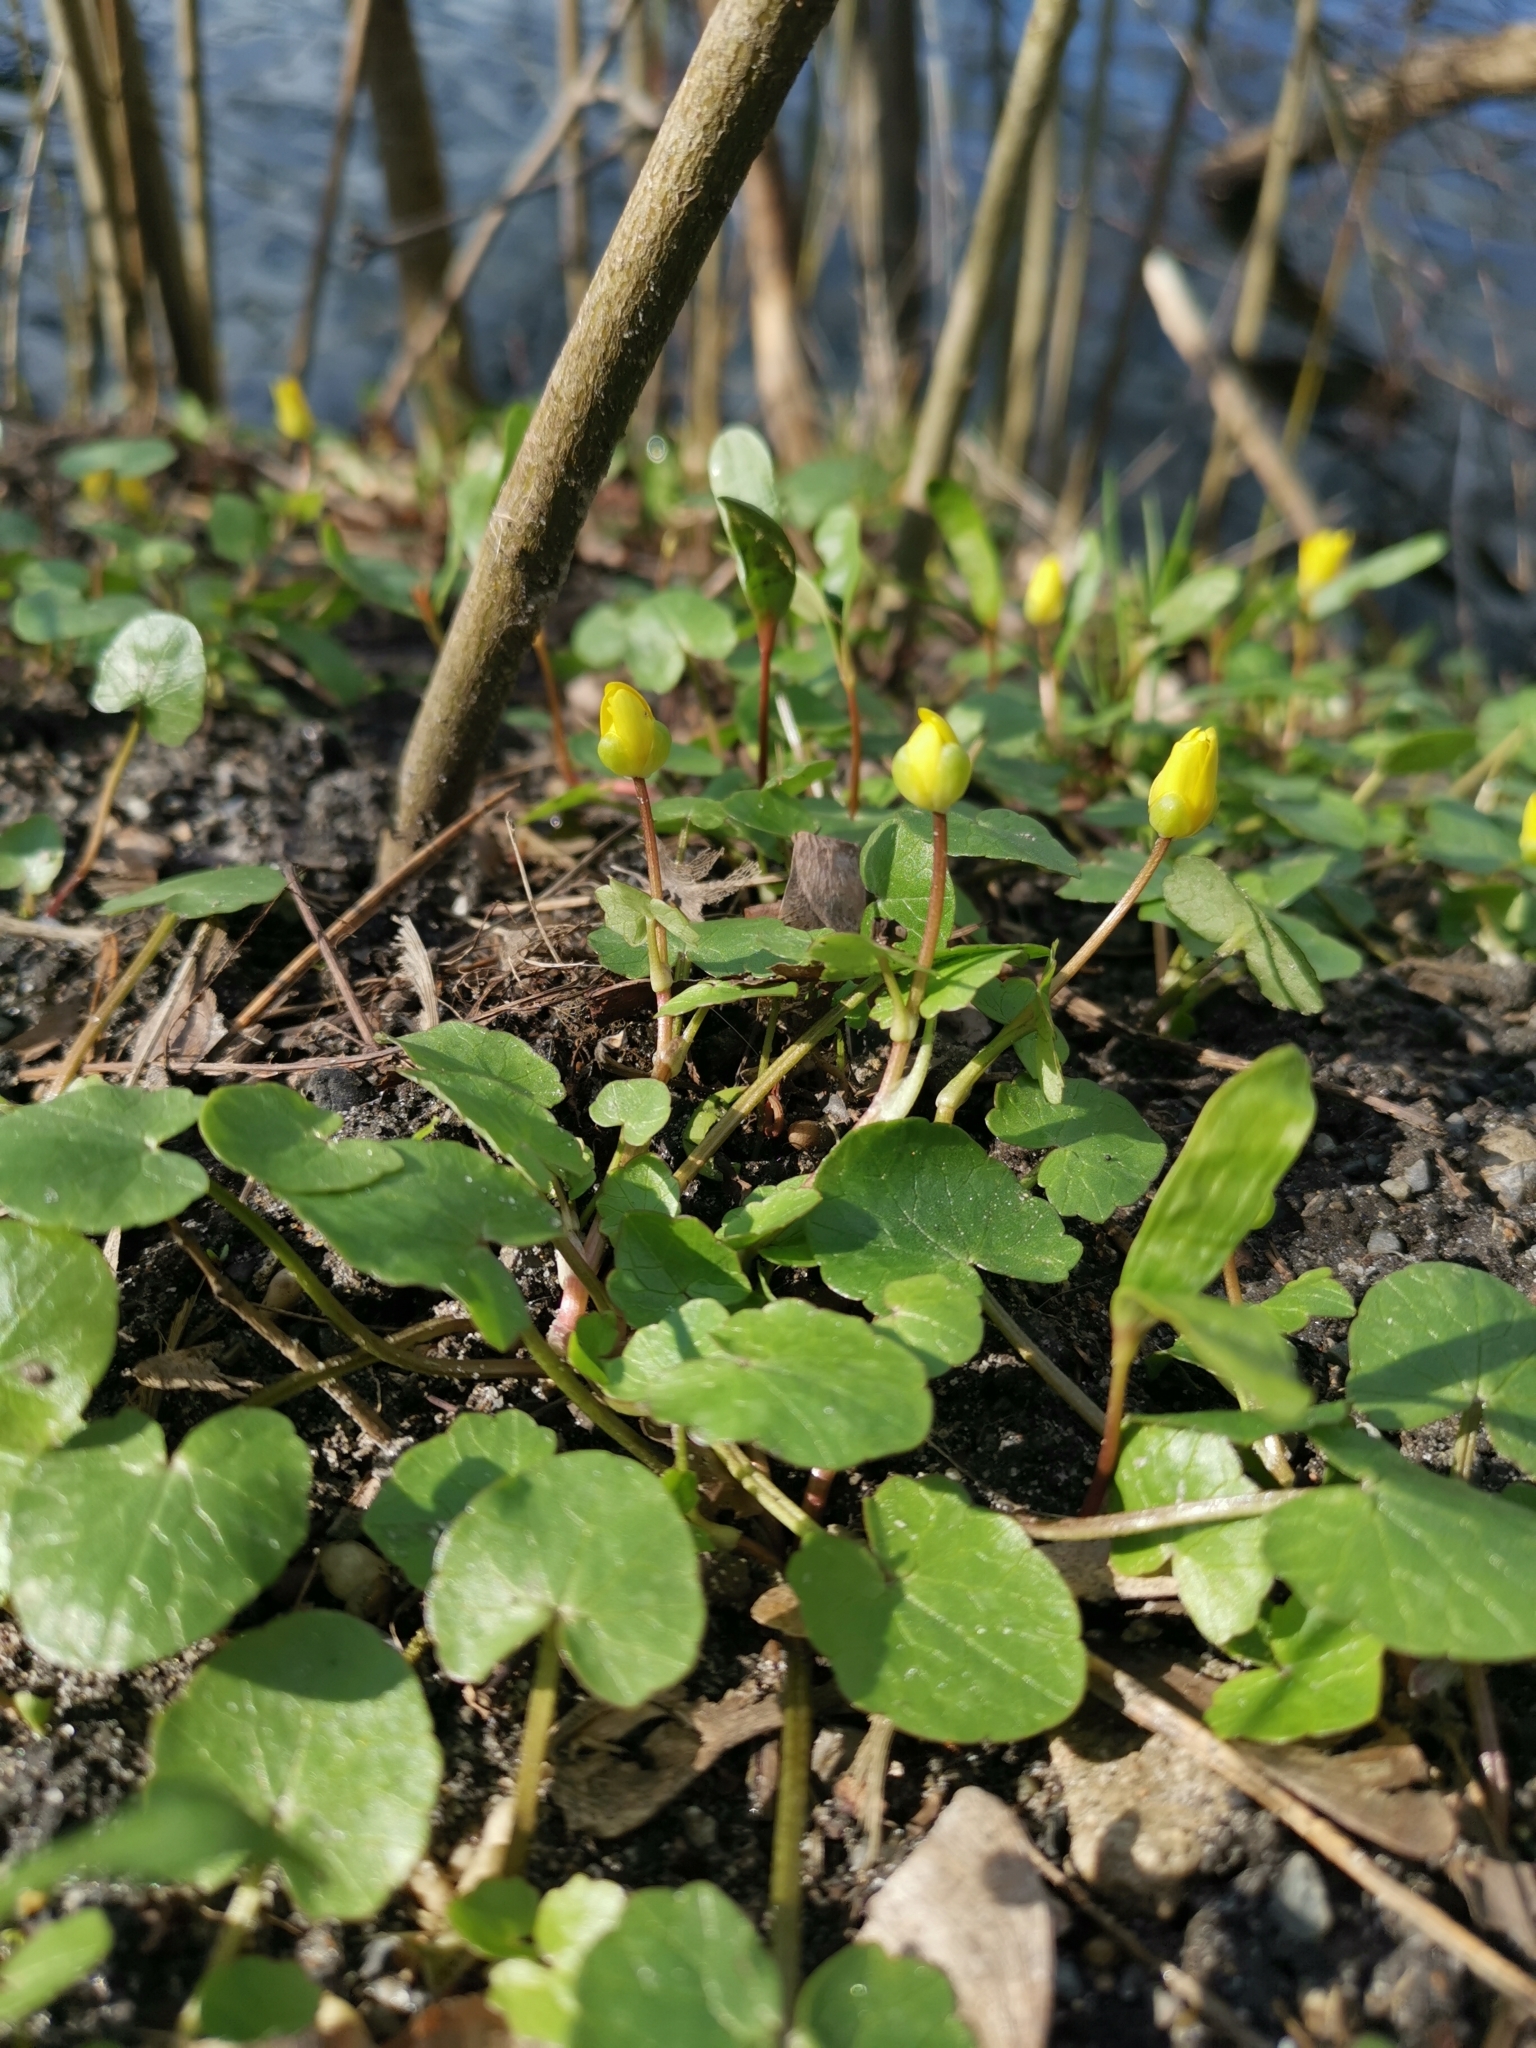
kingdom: Plantae
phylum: Tracheophyta
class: Magnoliopsida
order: Ranunculales
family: Ranunculaceae
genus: Ficaria
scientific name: Ficaria verna
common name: Lesser celandine
